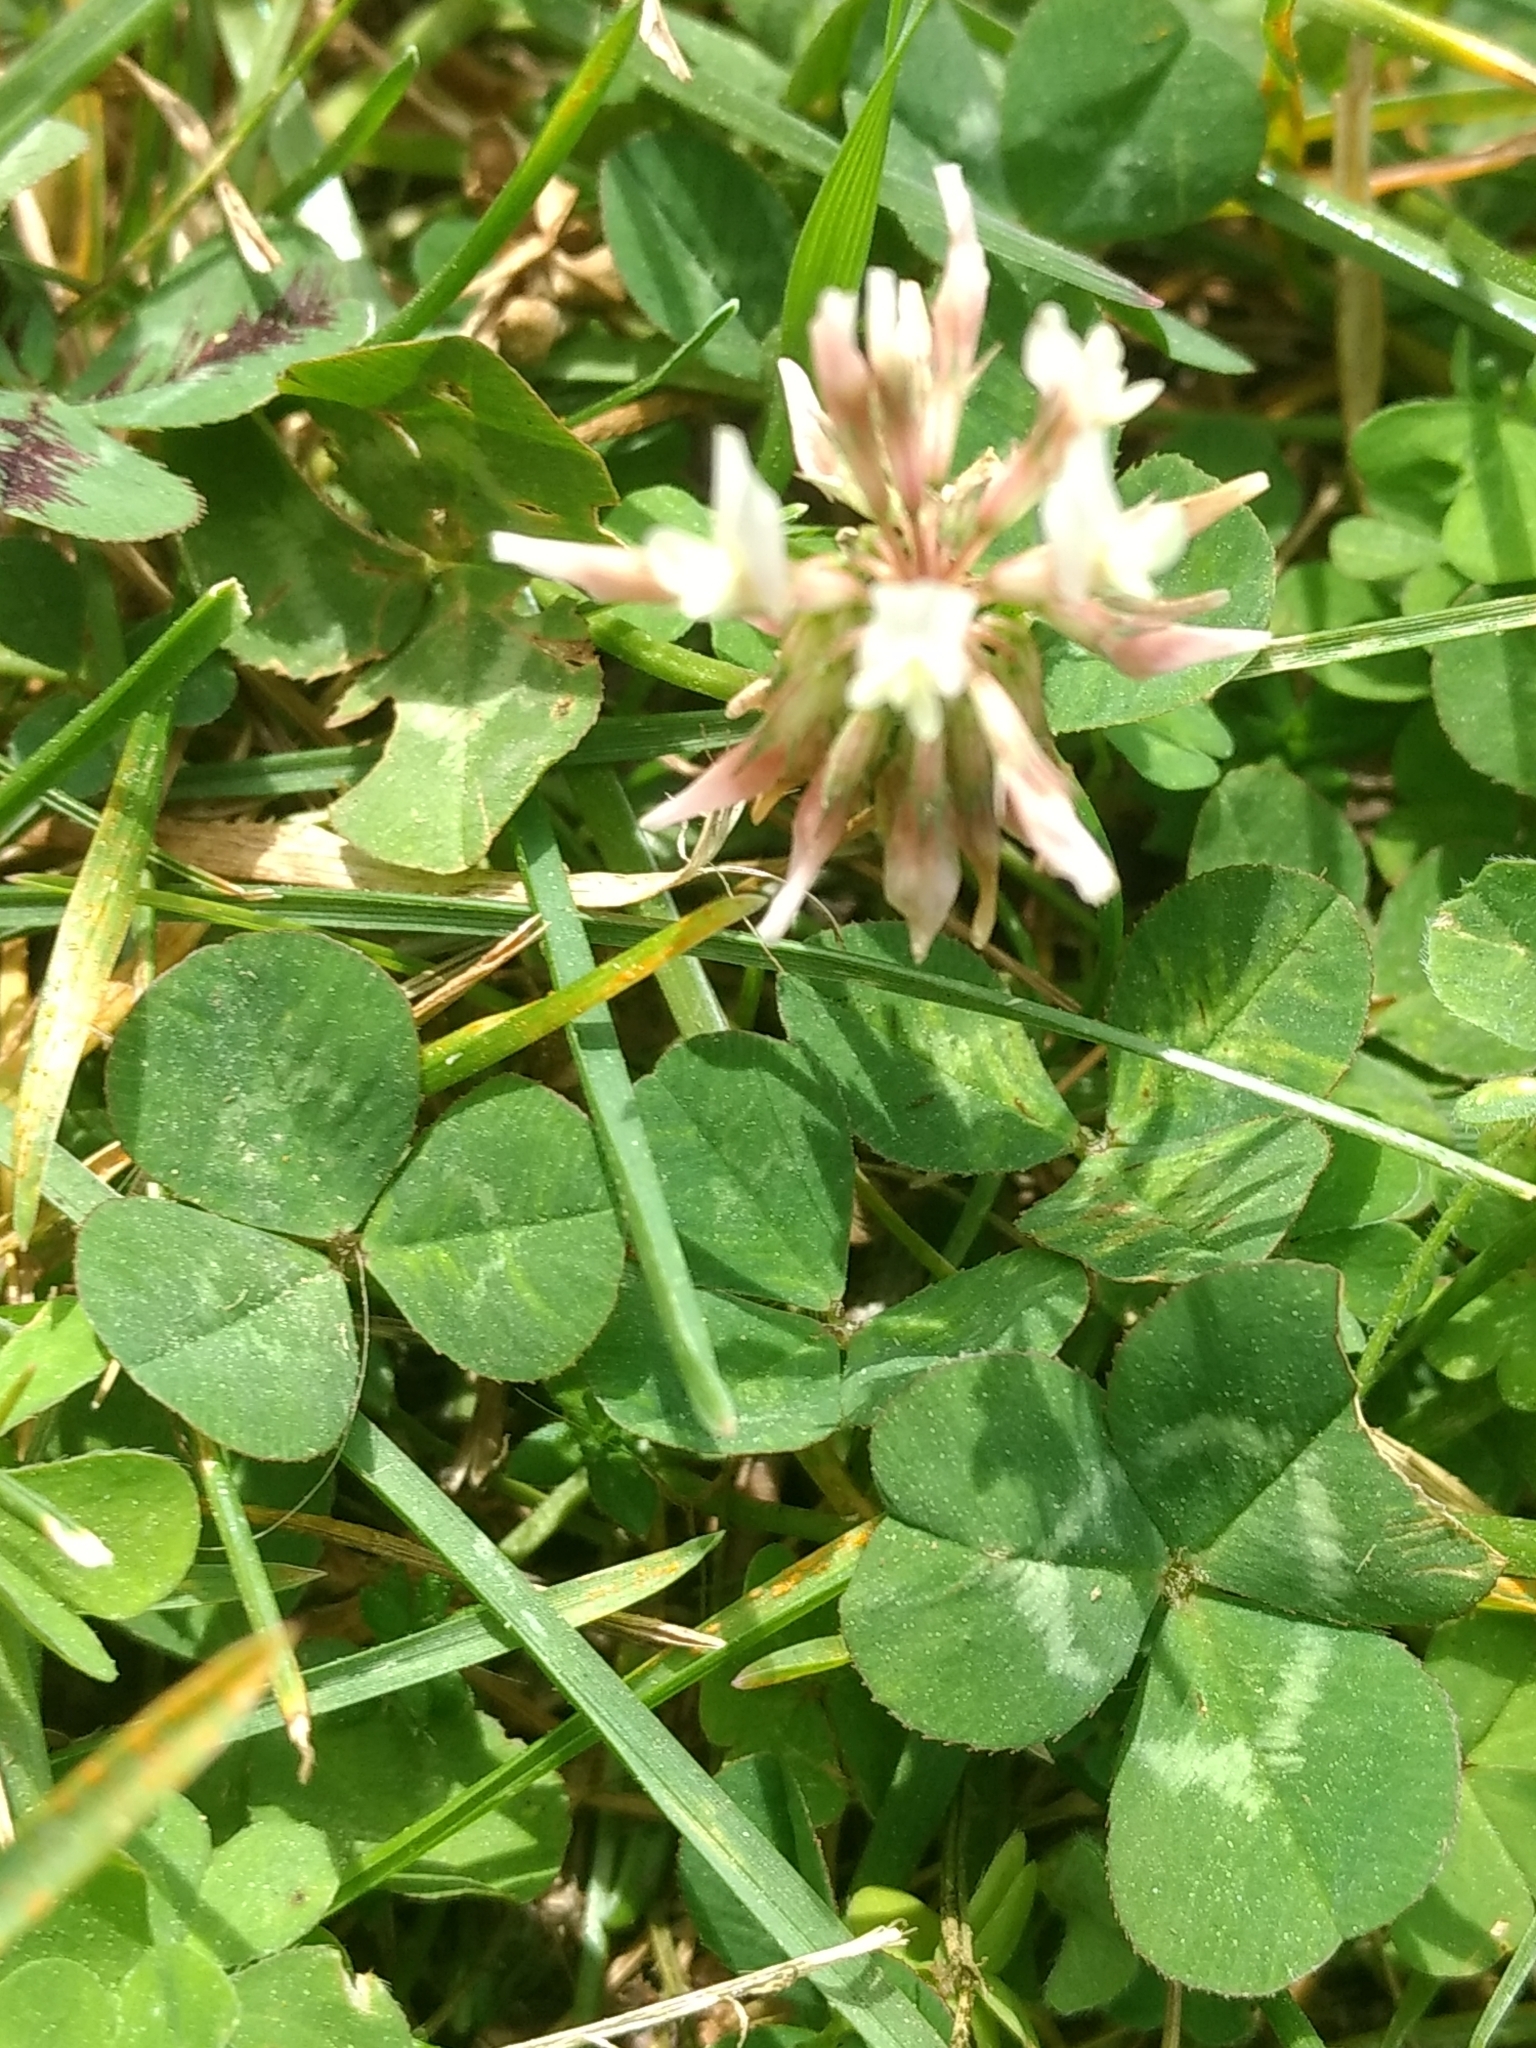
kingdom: Plantae
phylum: Tracheophyta
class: Magnoliopsida
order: Fabales
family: Fabaceae
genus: Trifolium
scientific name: Trifolium repens
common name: White clover
